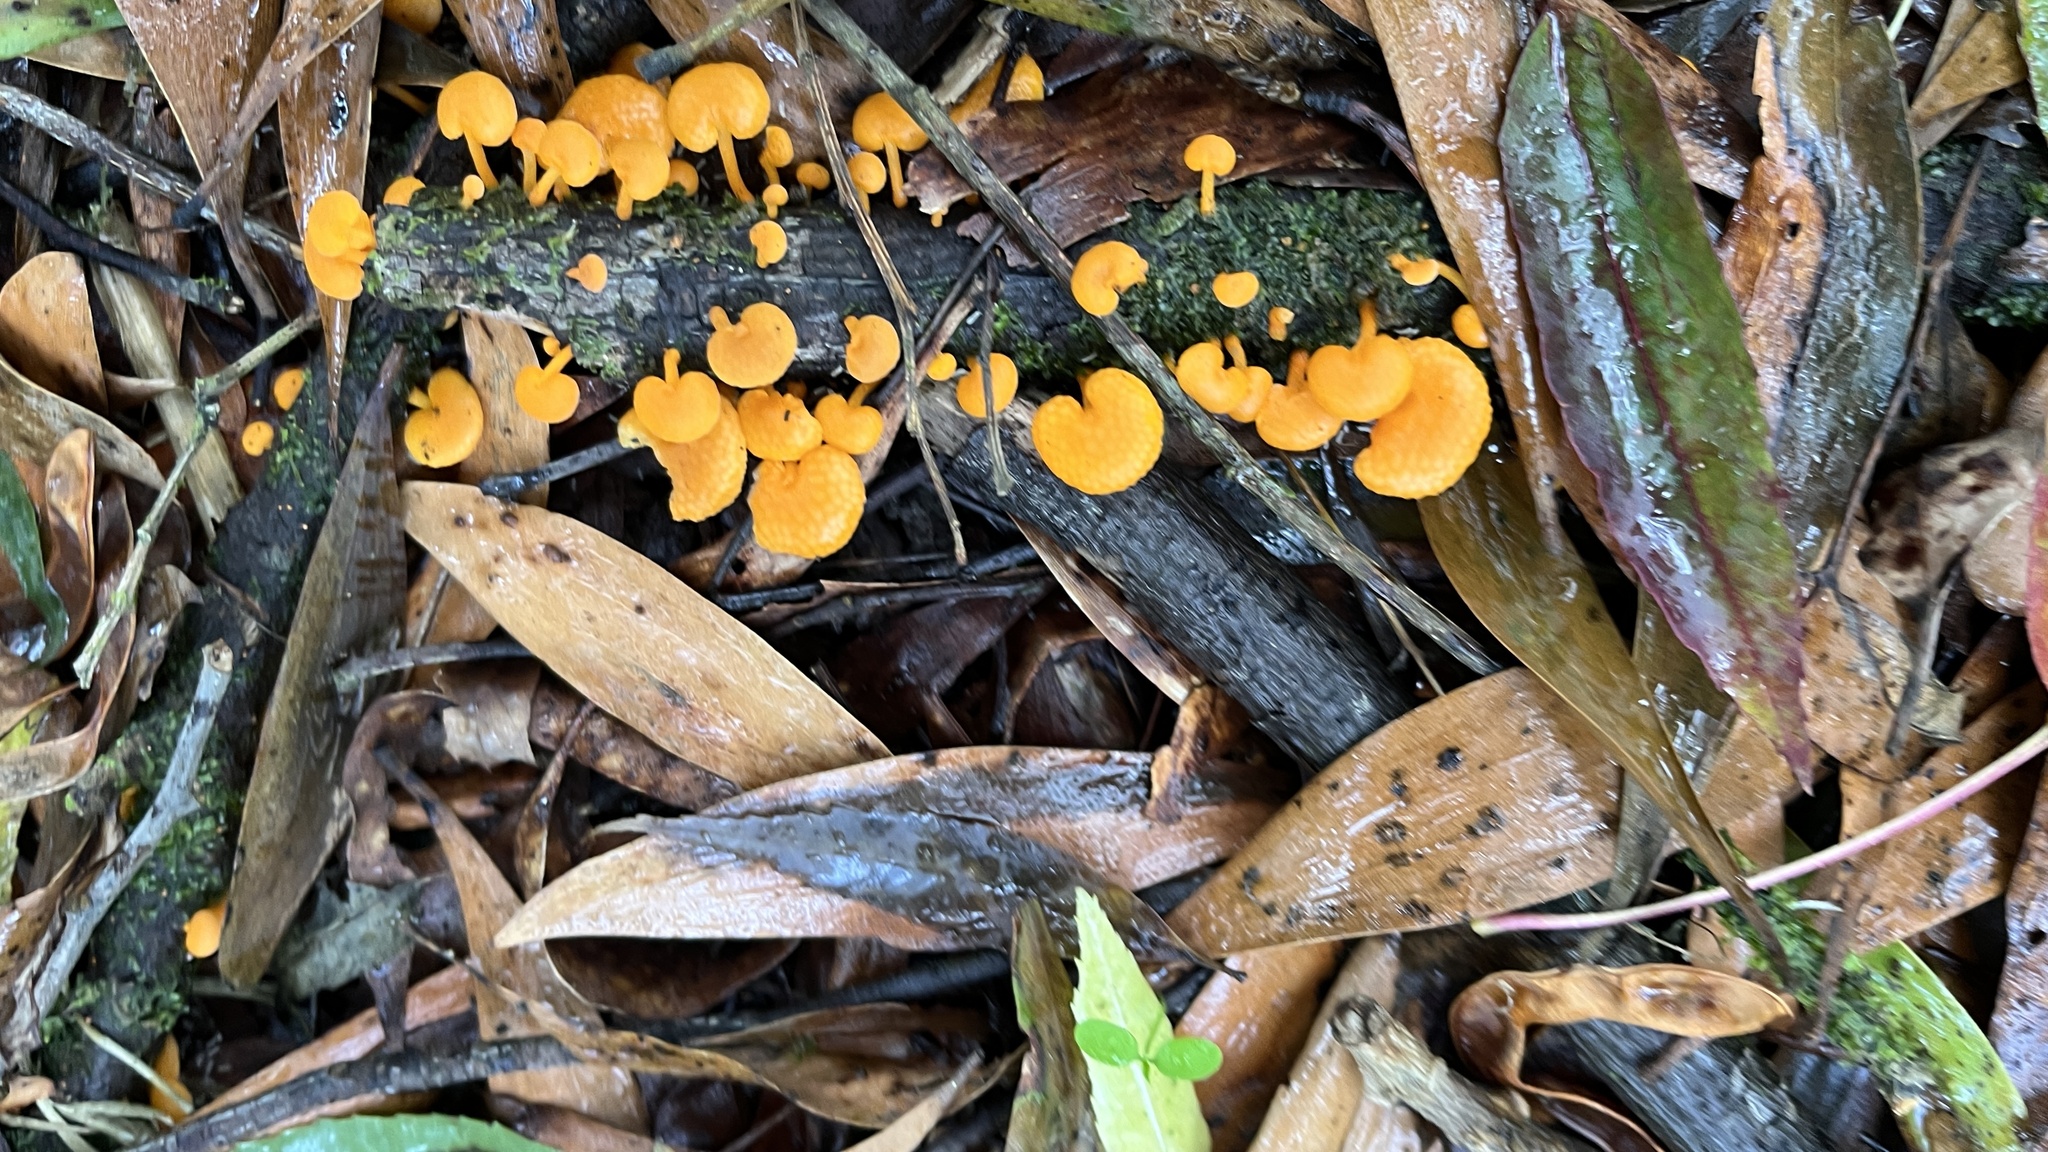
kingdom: Fungi
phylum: Basidiomycota
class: Agaricomycetes
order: Agaricales
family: Mycenaceae
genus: Favolaschia
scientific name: Favolaschia claudopus
